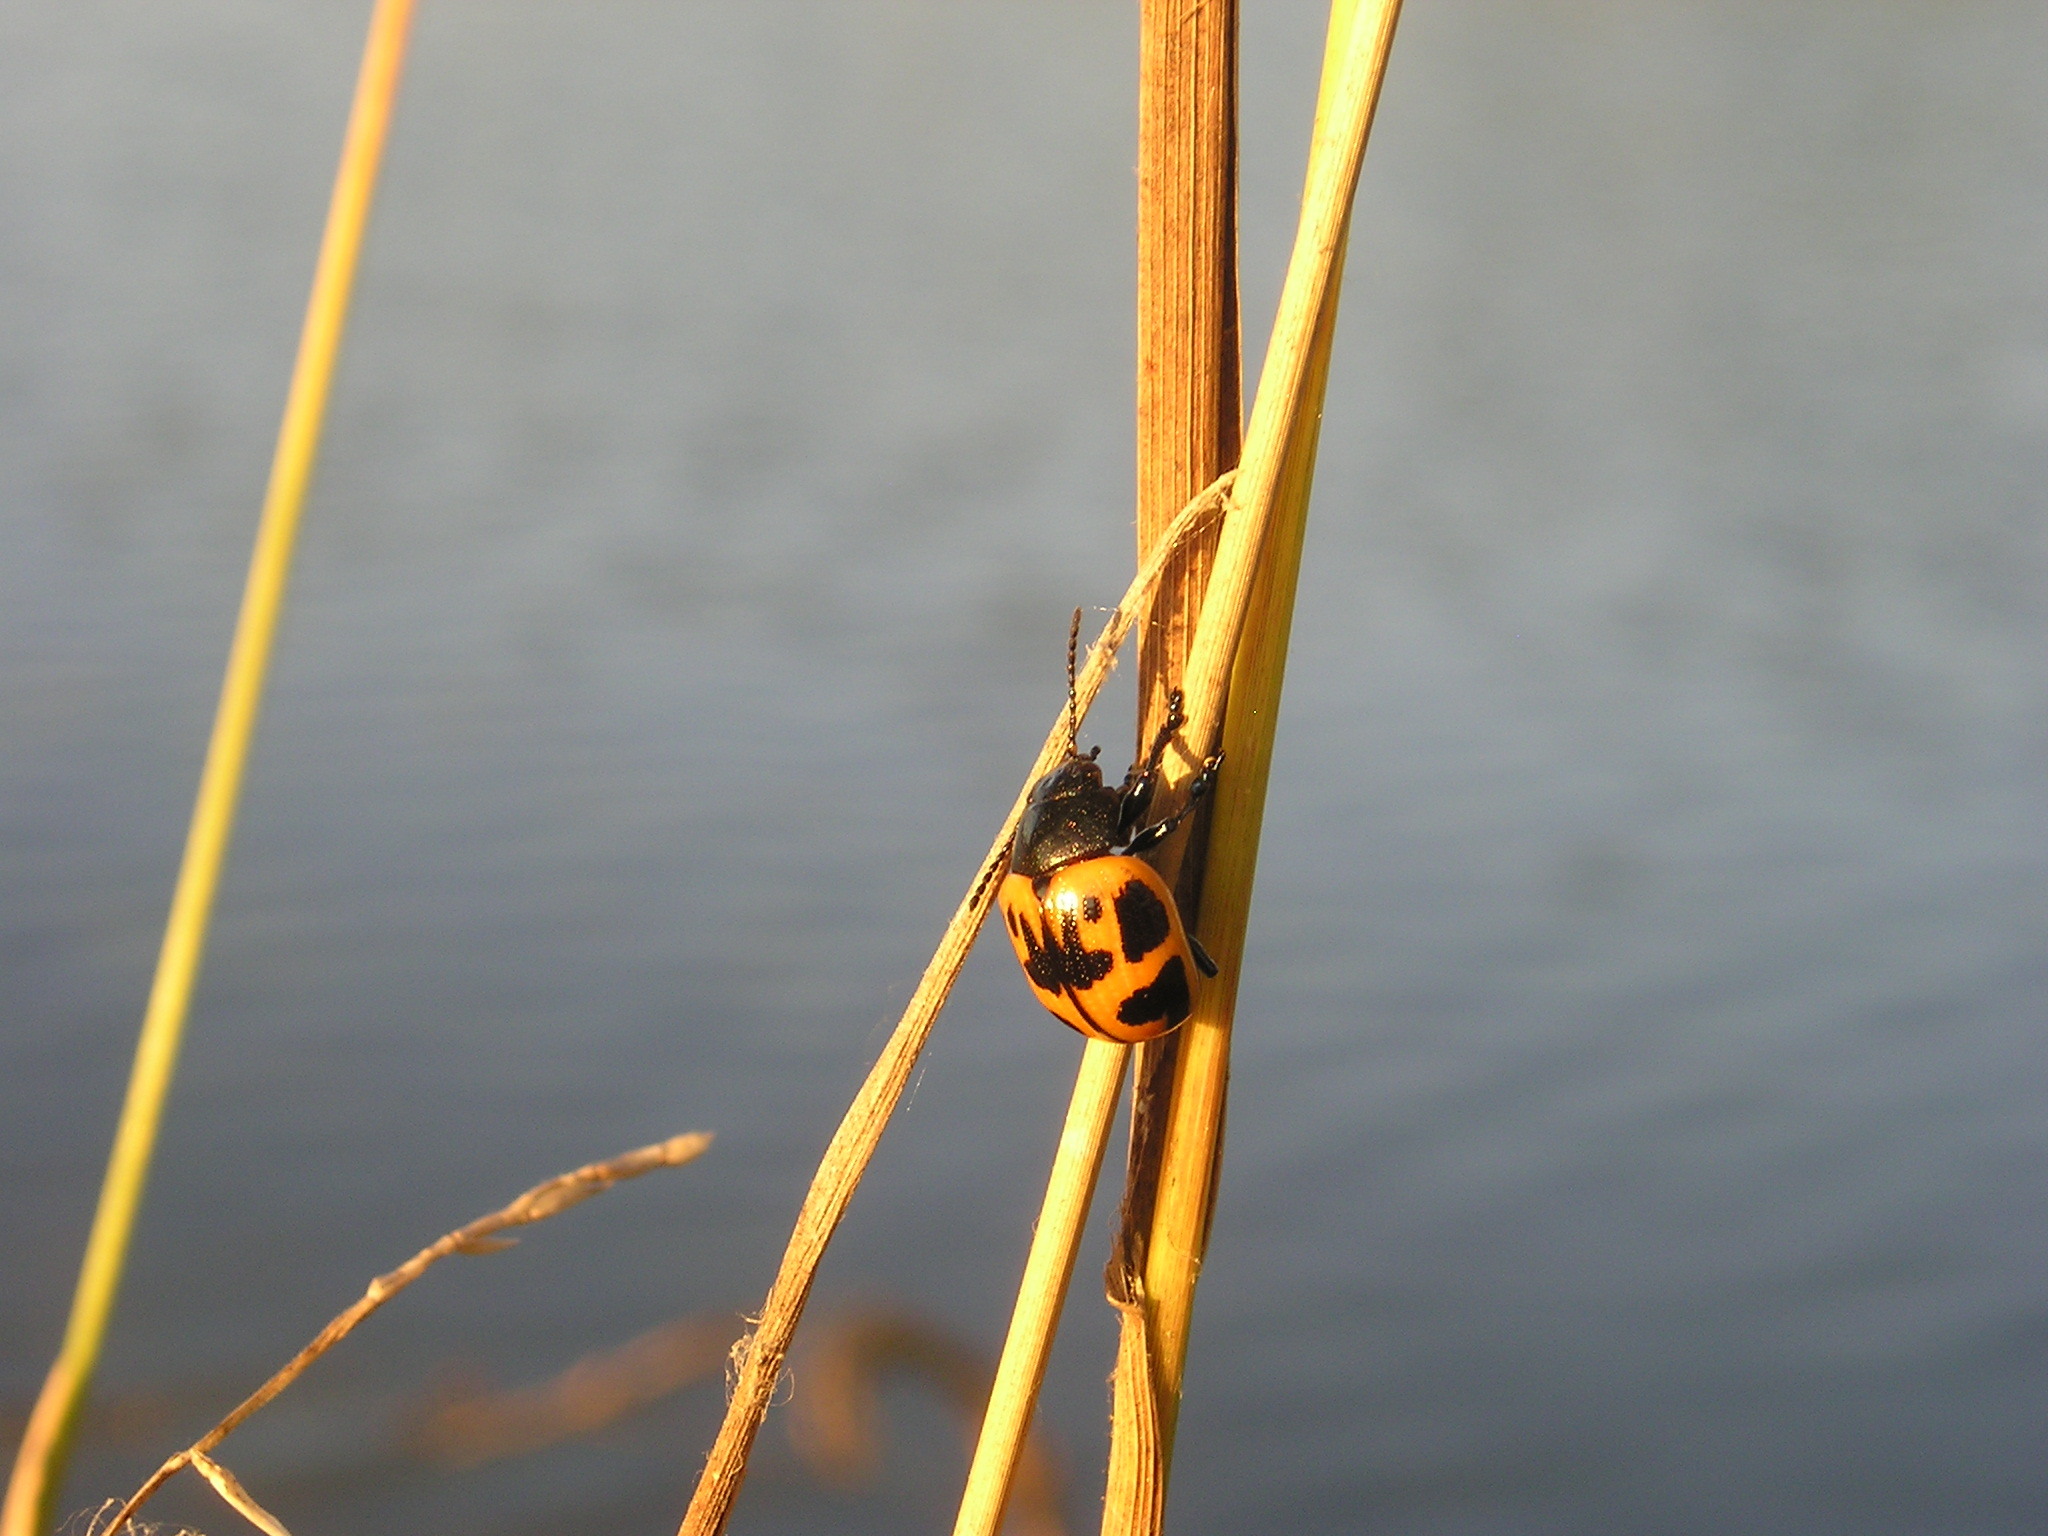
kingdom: Animalia
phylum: Arthropoda
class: Insecta
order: Coleoptera
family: Chrysomelidae
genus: Labidomera
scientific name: Labidomera clivicollis
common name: Swamp milkweed leaf beetle
